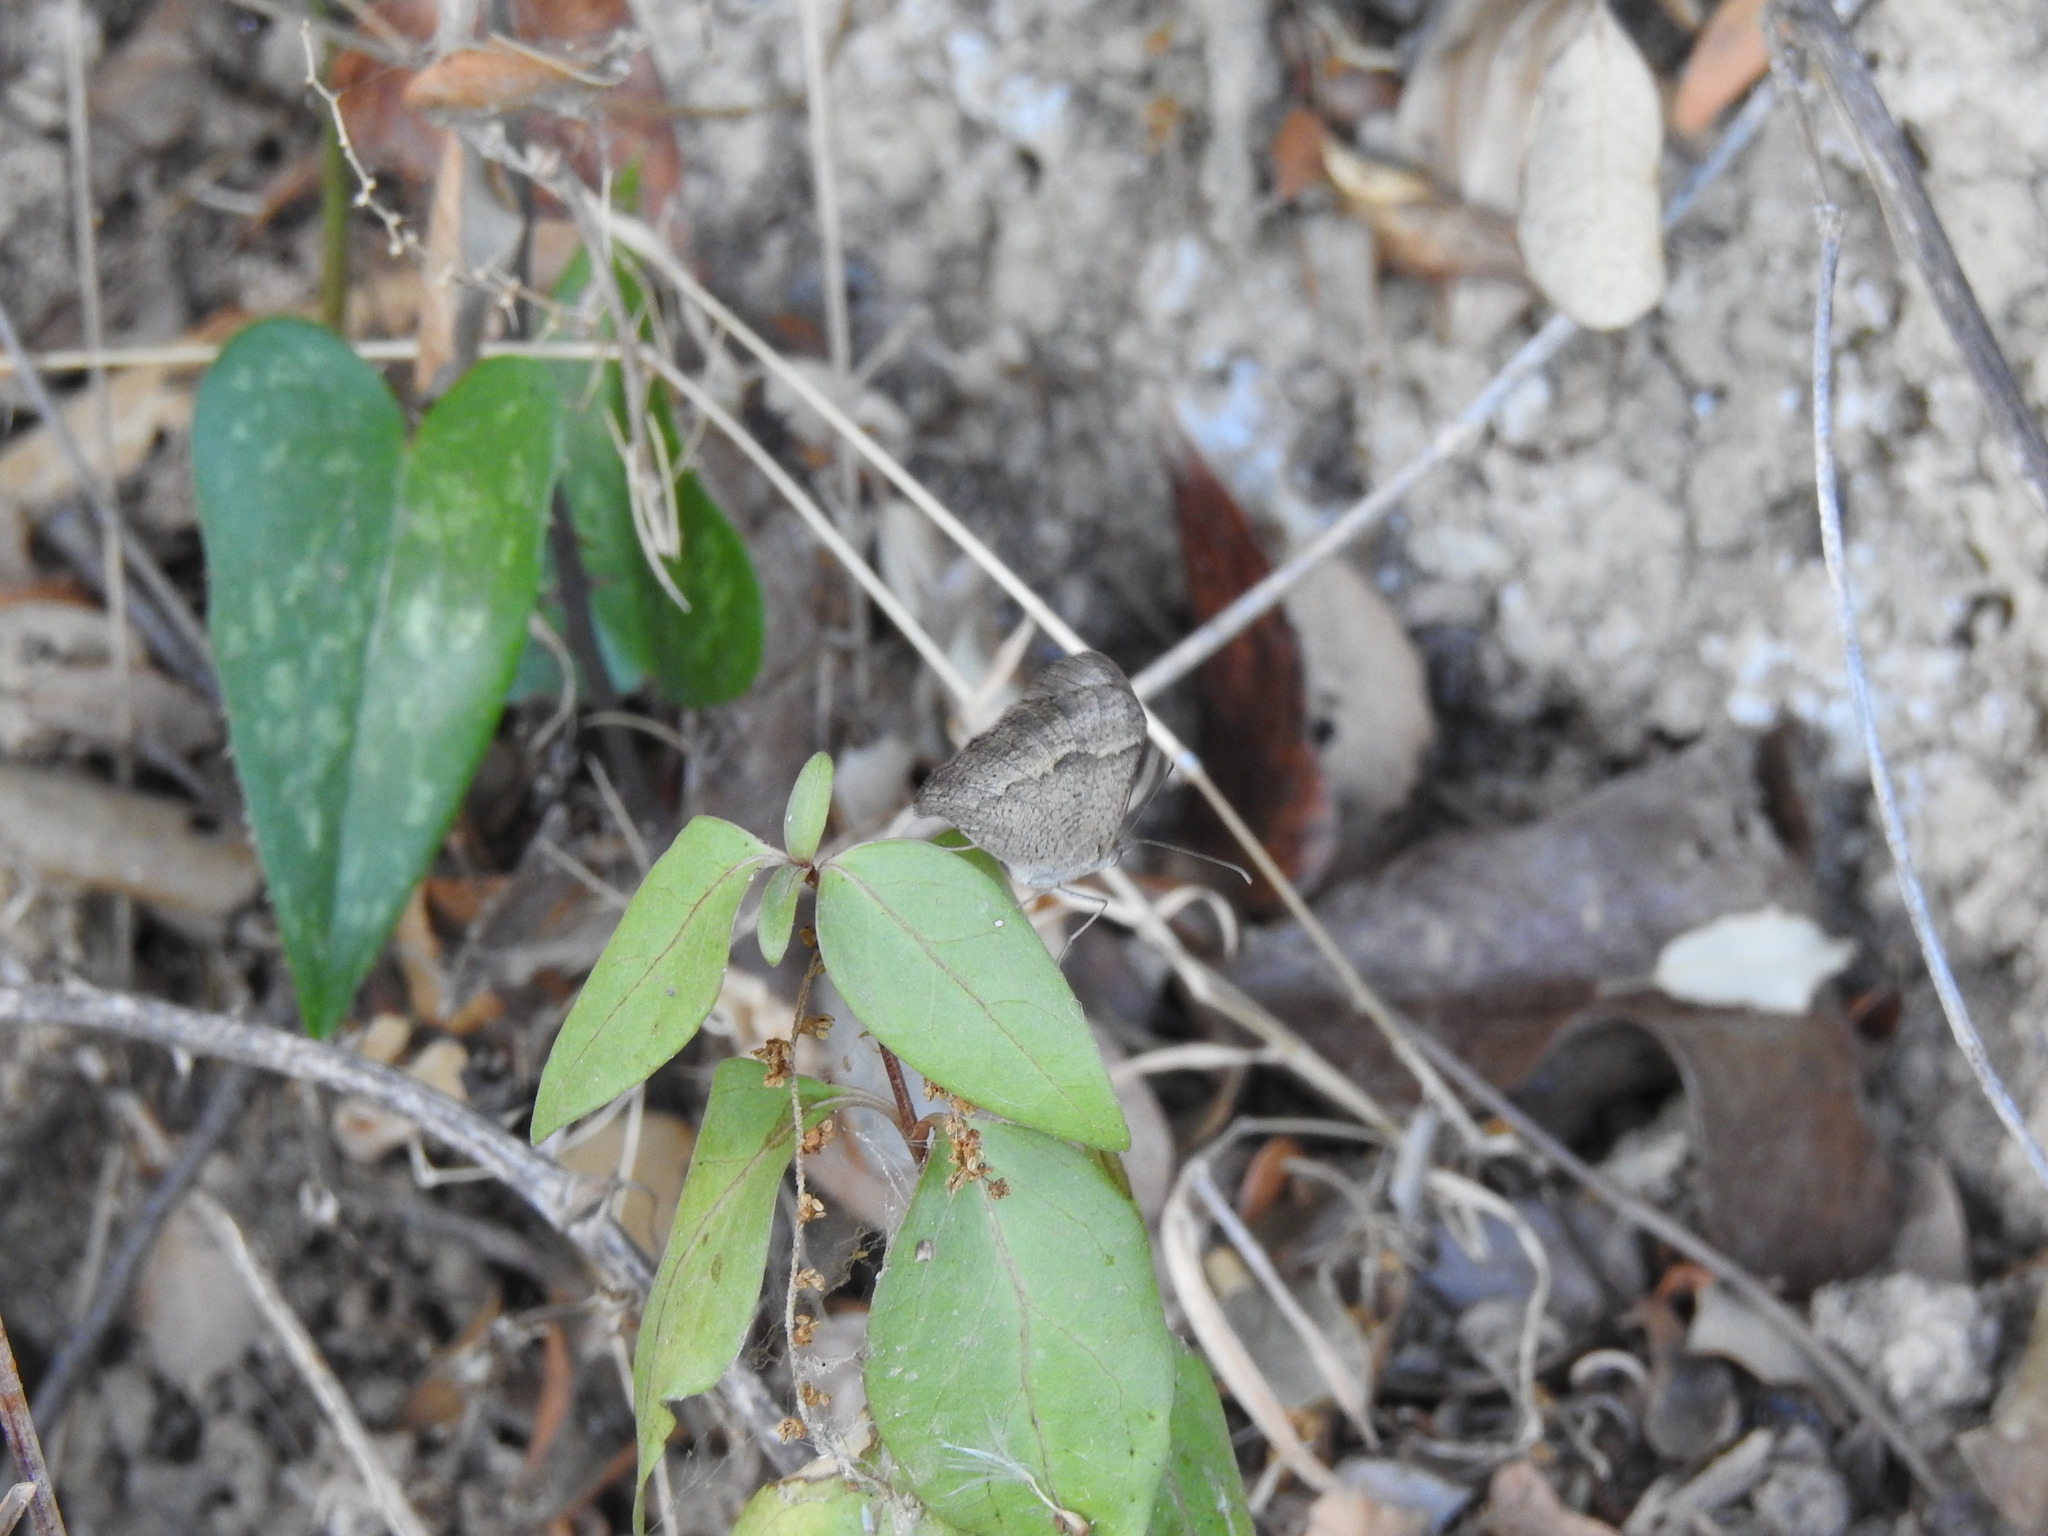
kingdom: Animalia
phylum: Arthropoda
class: Insecta
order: Lepidoptera
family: Nymphalidae
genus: Maniola
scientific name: Maniola jurtina
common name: Meadow brown
